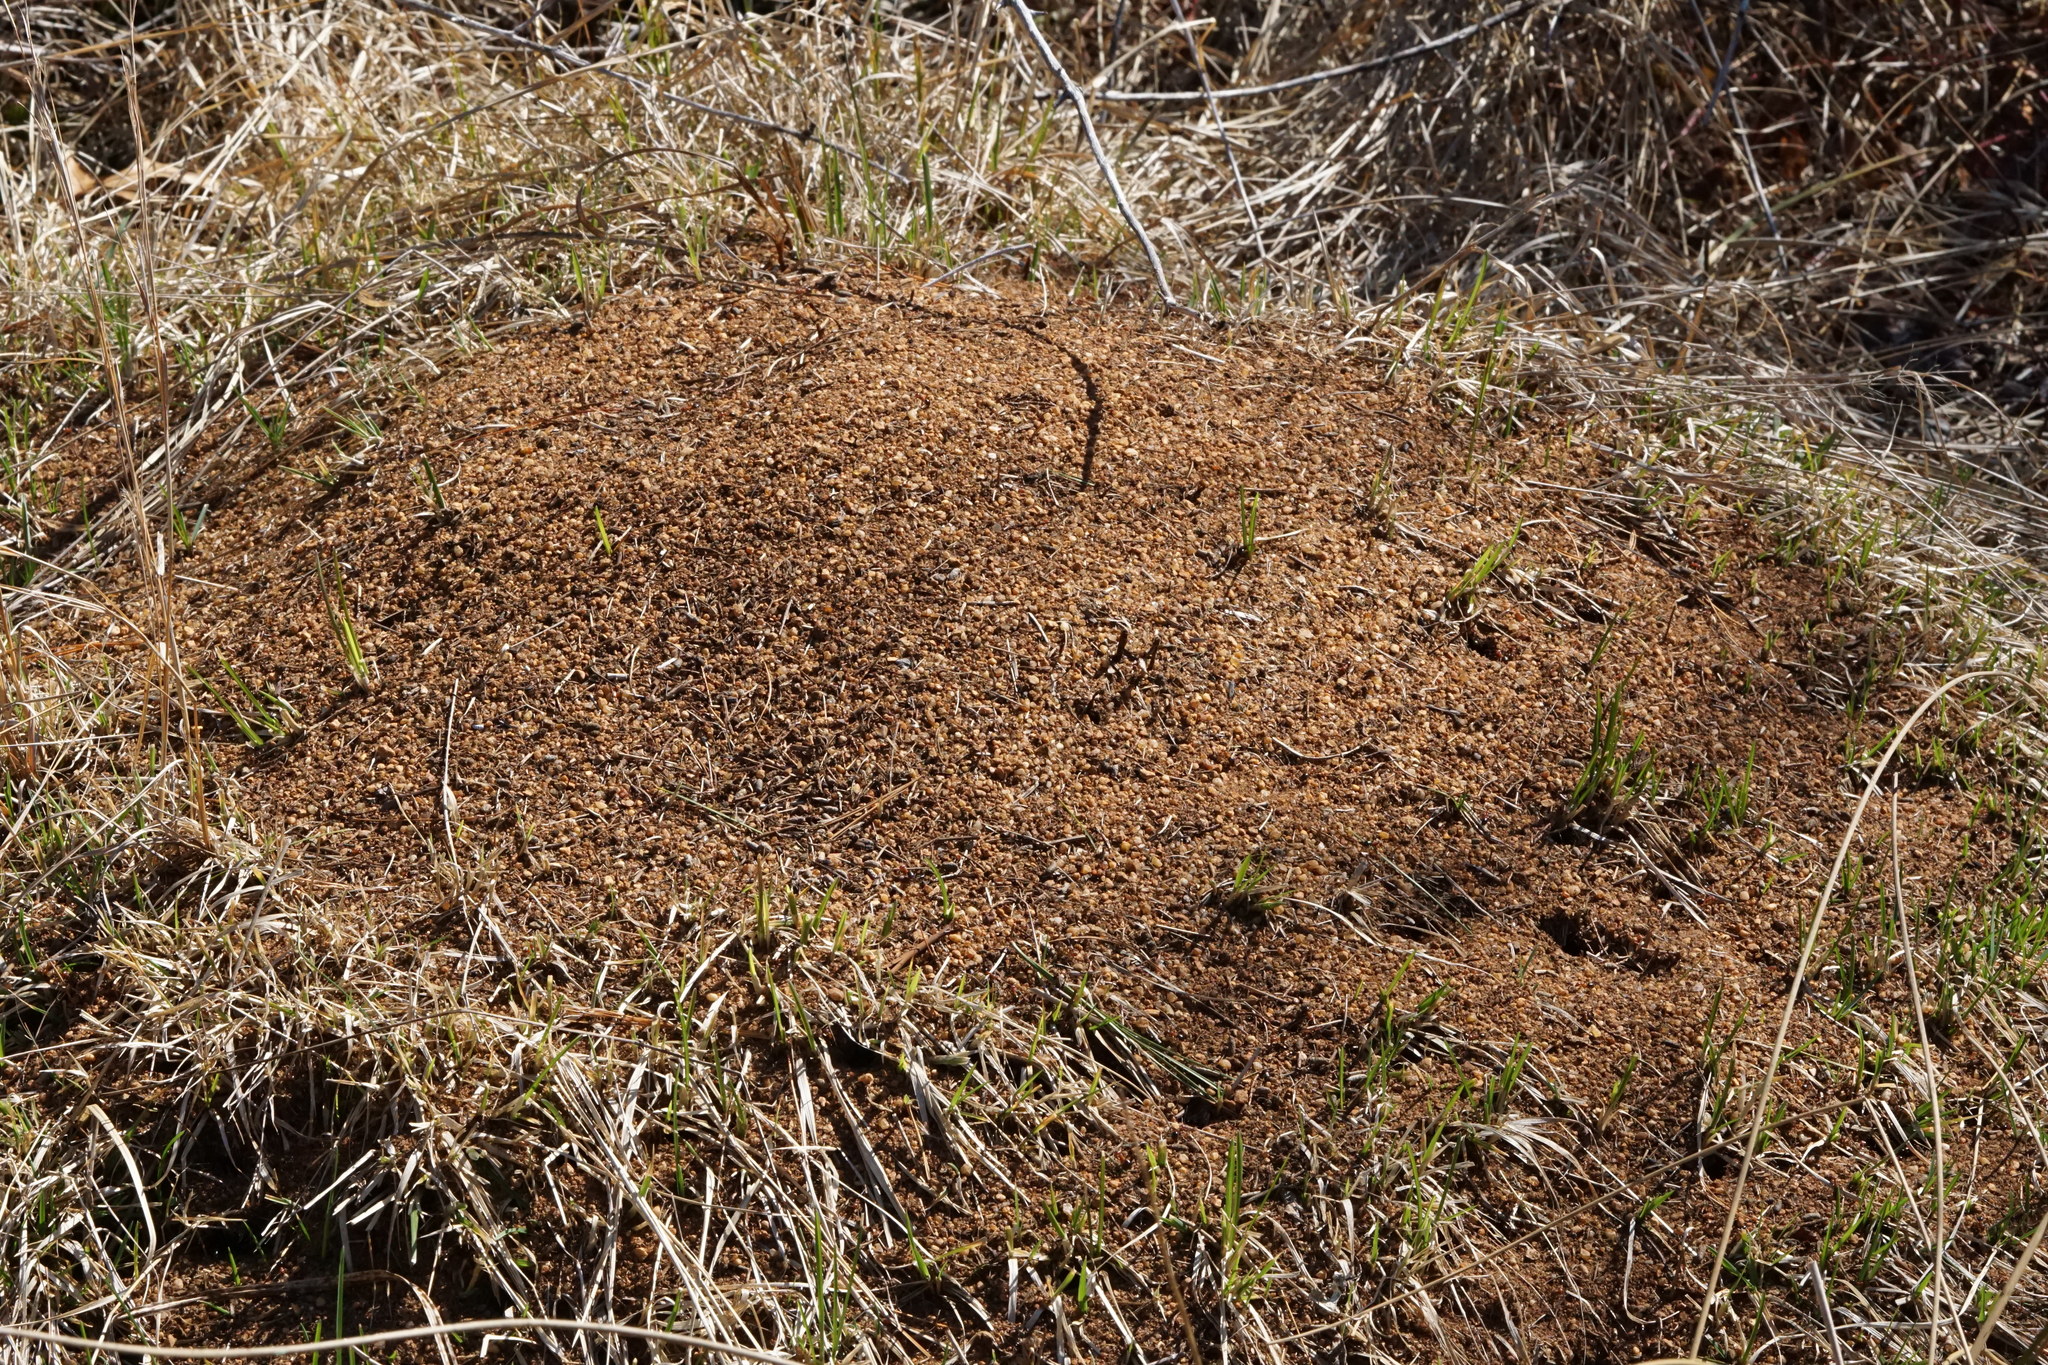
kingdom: Animalia
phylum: Arthropoda
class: Insecta
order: Hymenoptera
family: Formicidae
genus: Formica
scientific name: Formica exsectoides
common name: Allegheny mound ant
